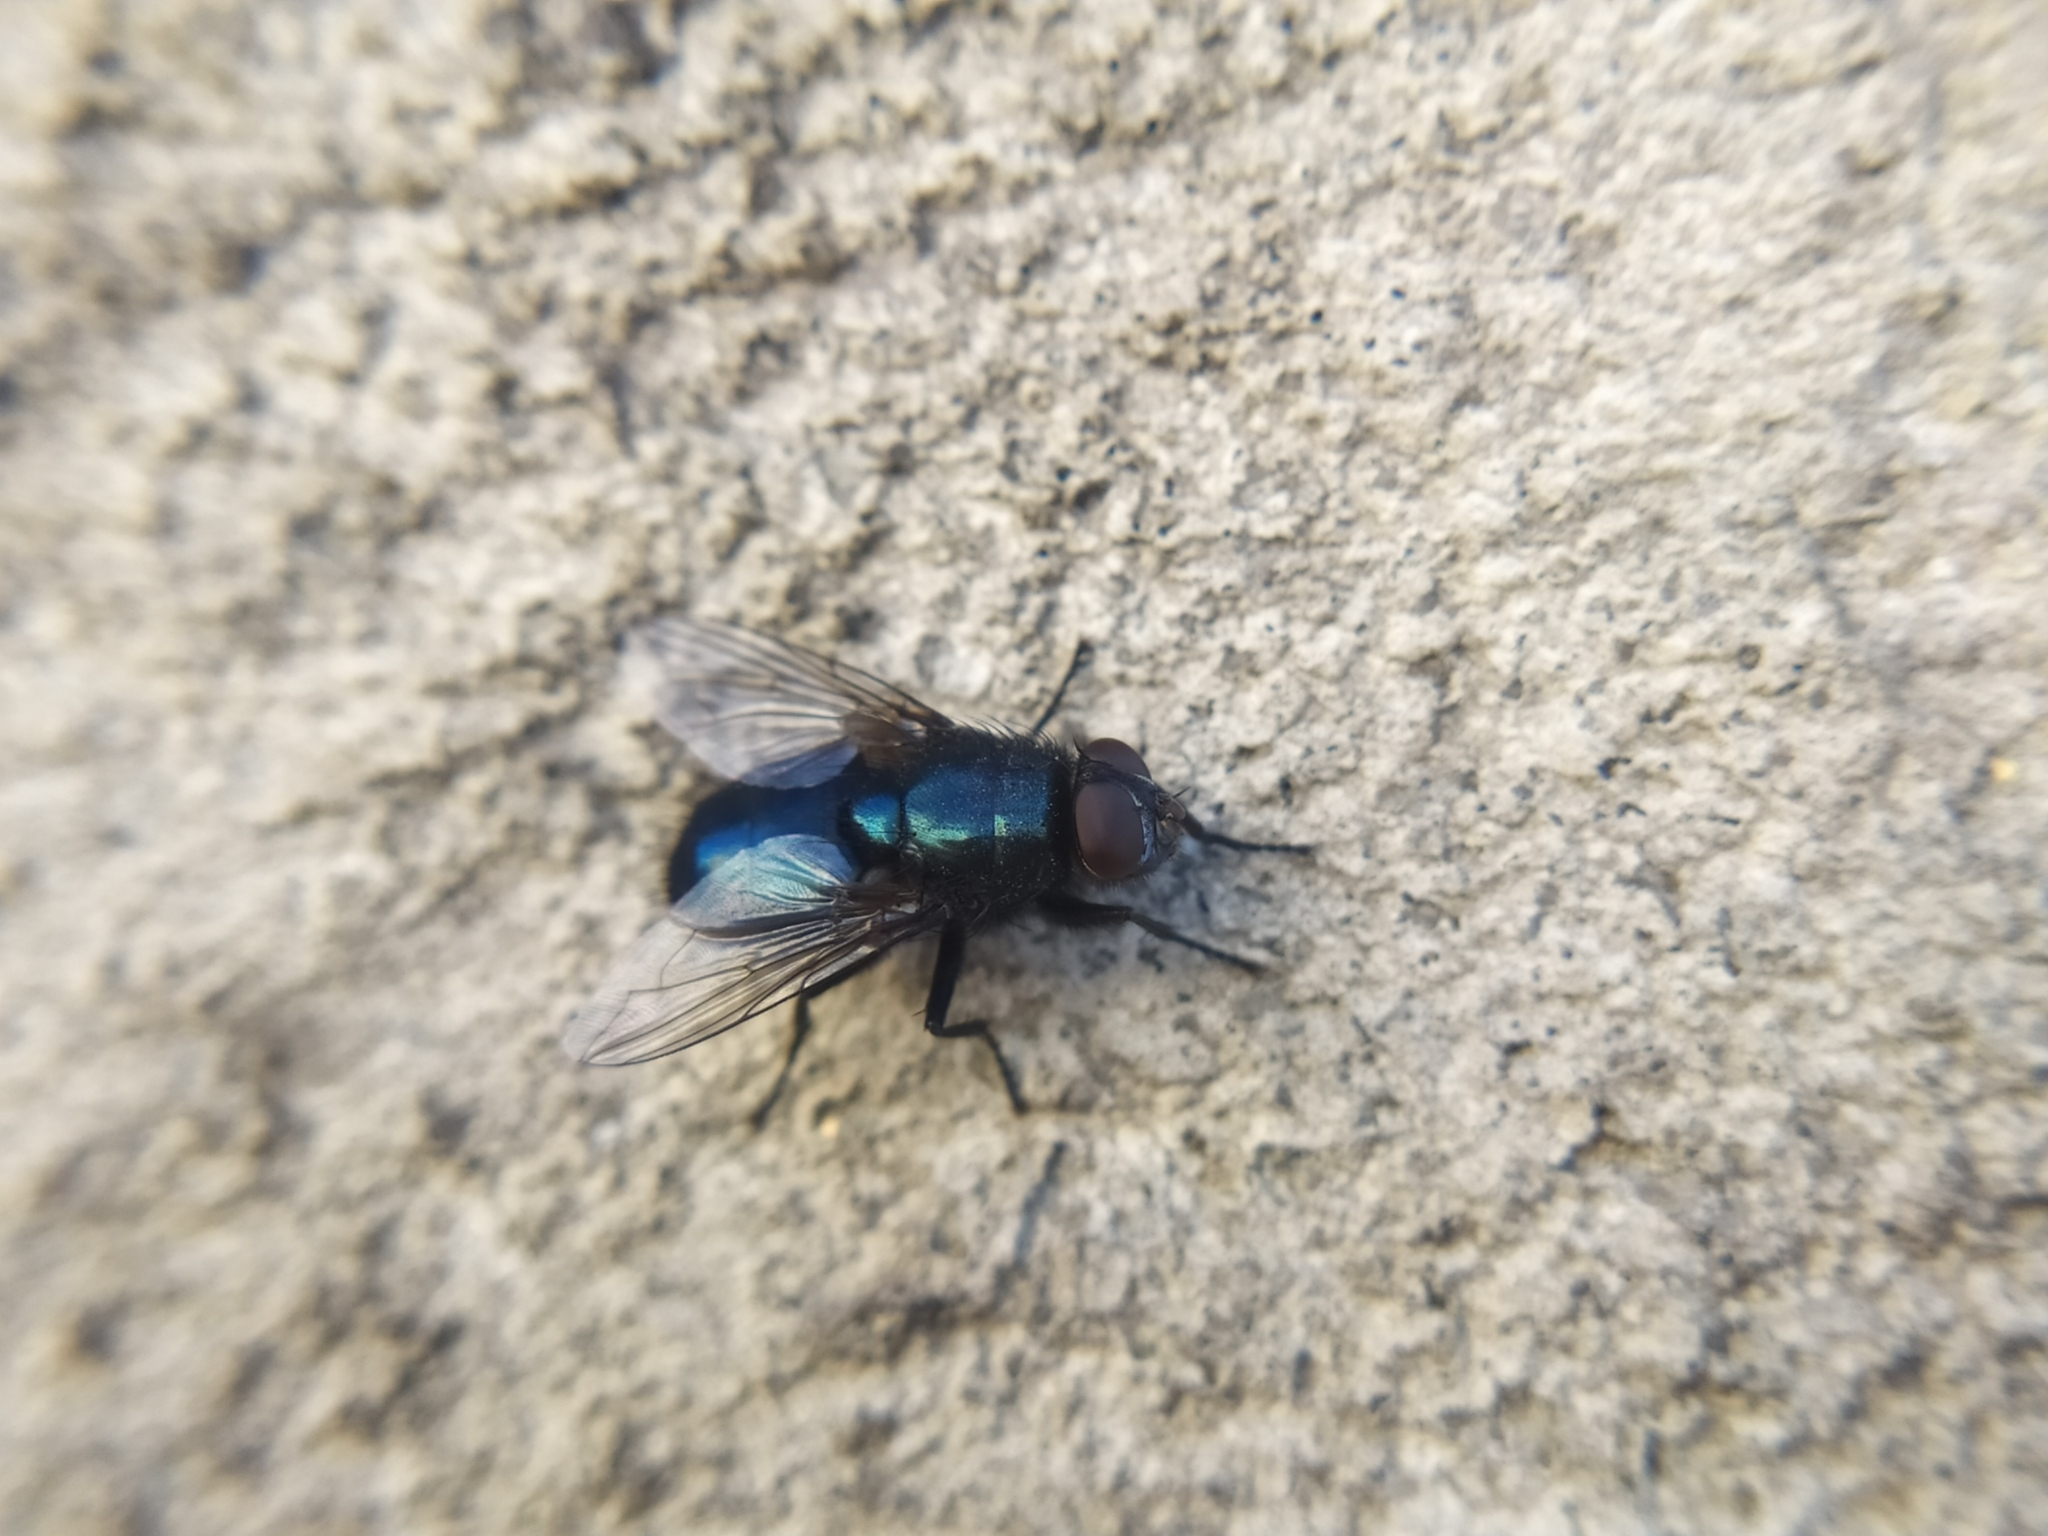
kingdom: Animalia
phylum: Arthropoda
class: Insecta
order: Diptera
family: Calliphoridae
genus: Protophormia
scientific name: Protophormia terraenovae
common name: Blackbottle
